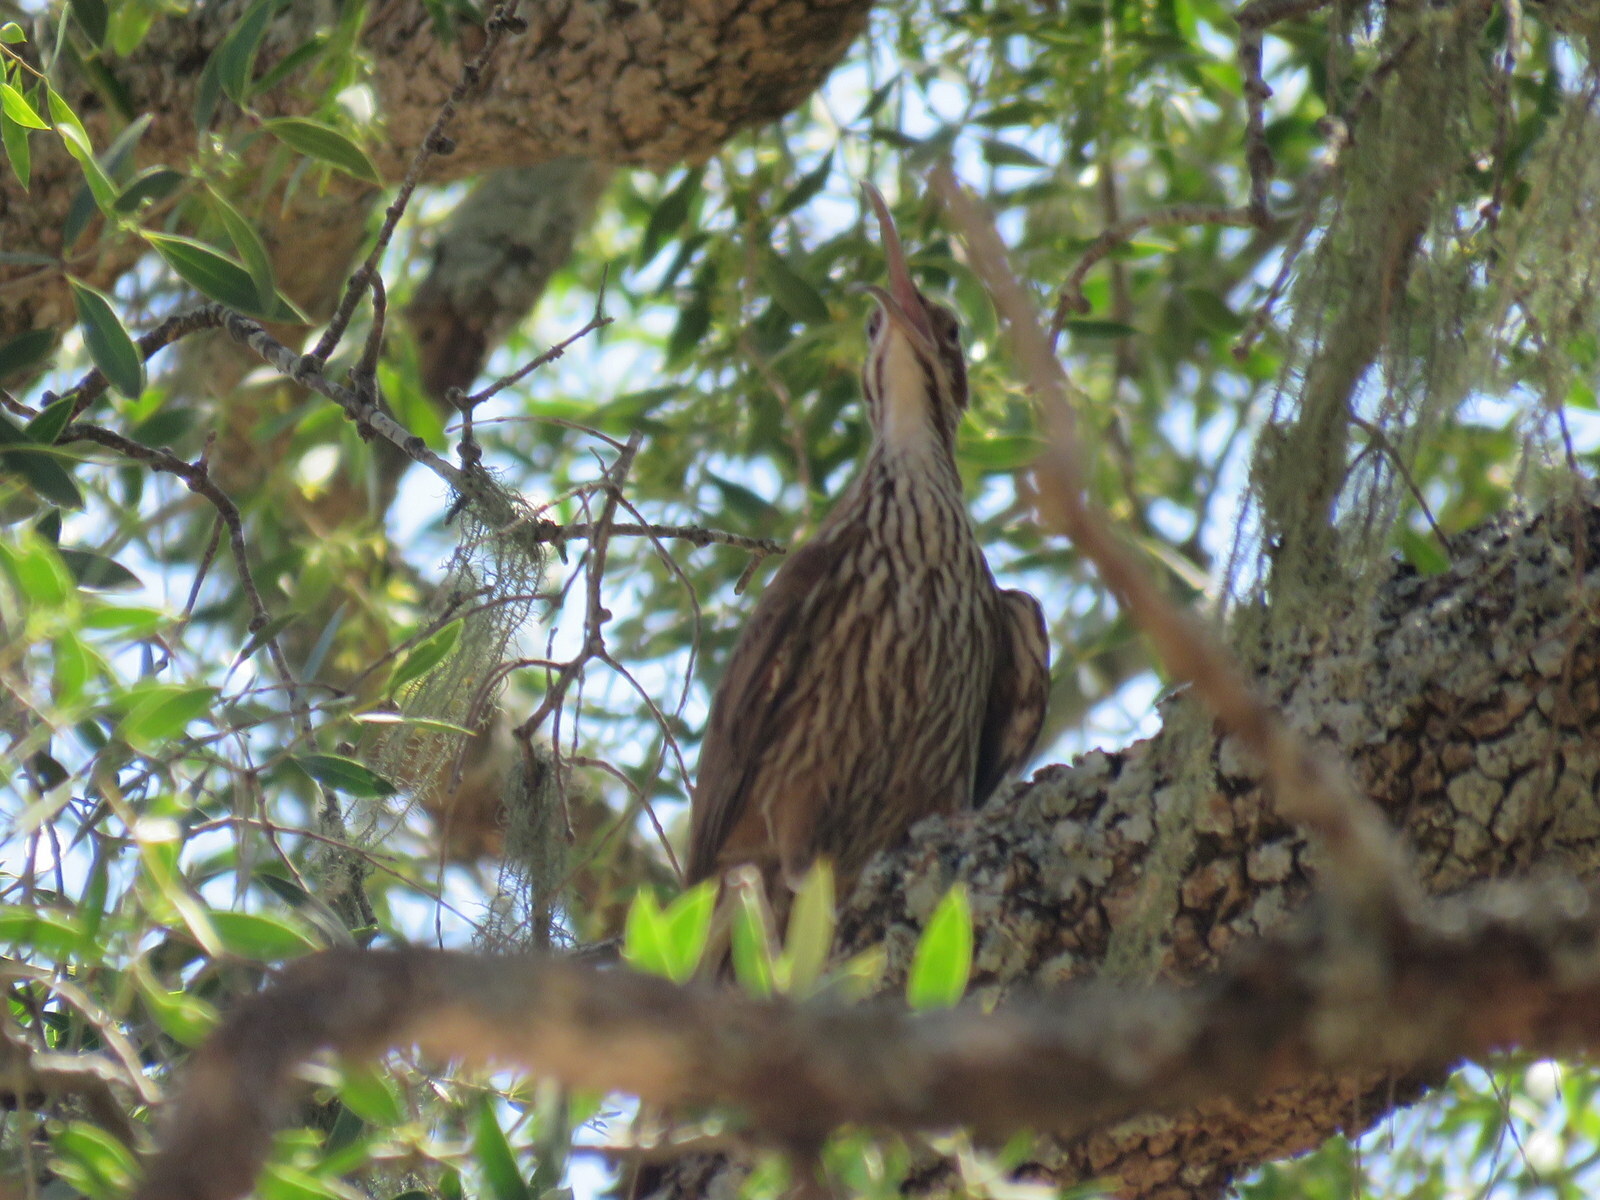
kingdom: Animalia
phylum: Chordata
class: Aves
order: Passeriformes
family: Furnariidae
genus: Drymornis
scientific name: Drymornis bridgesii
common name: Scimitar-billed woodcreeper
